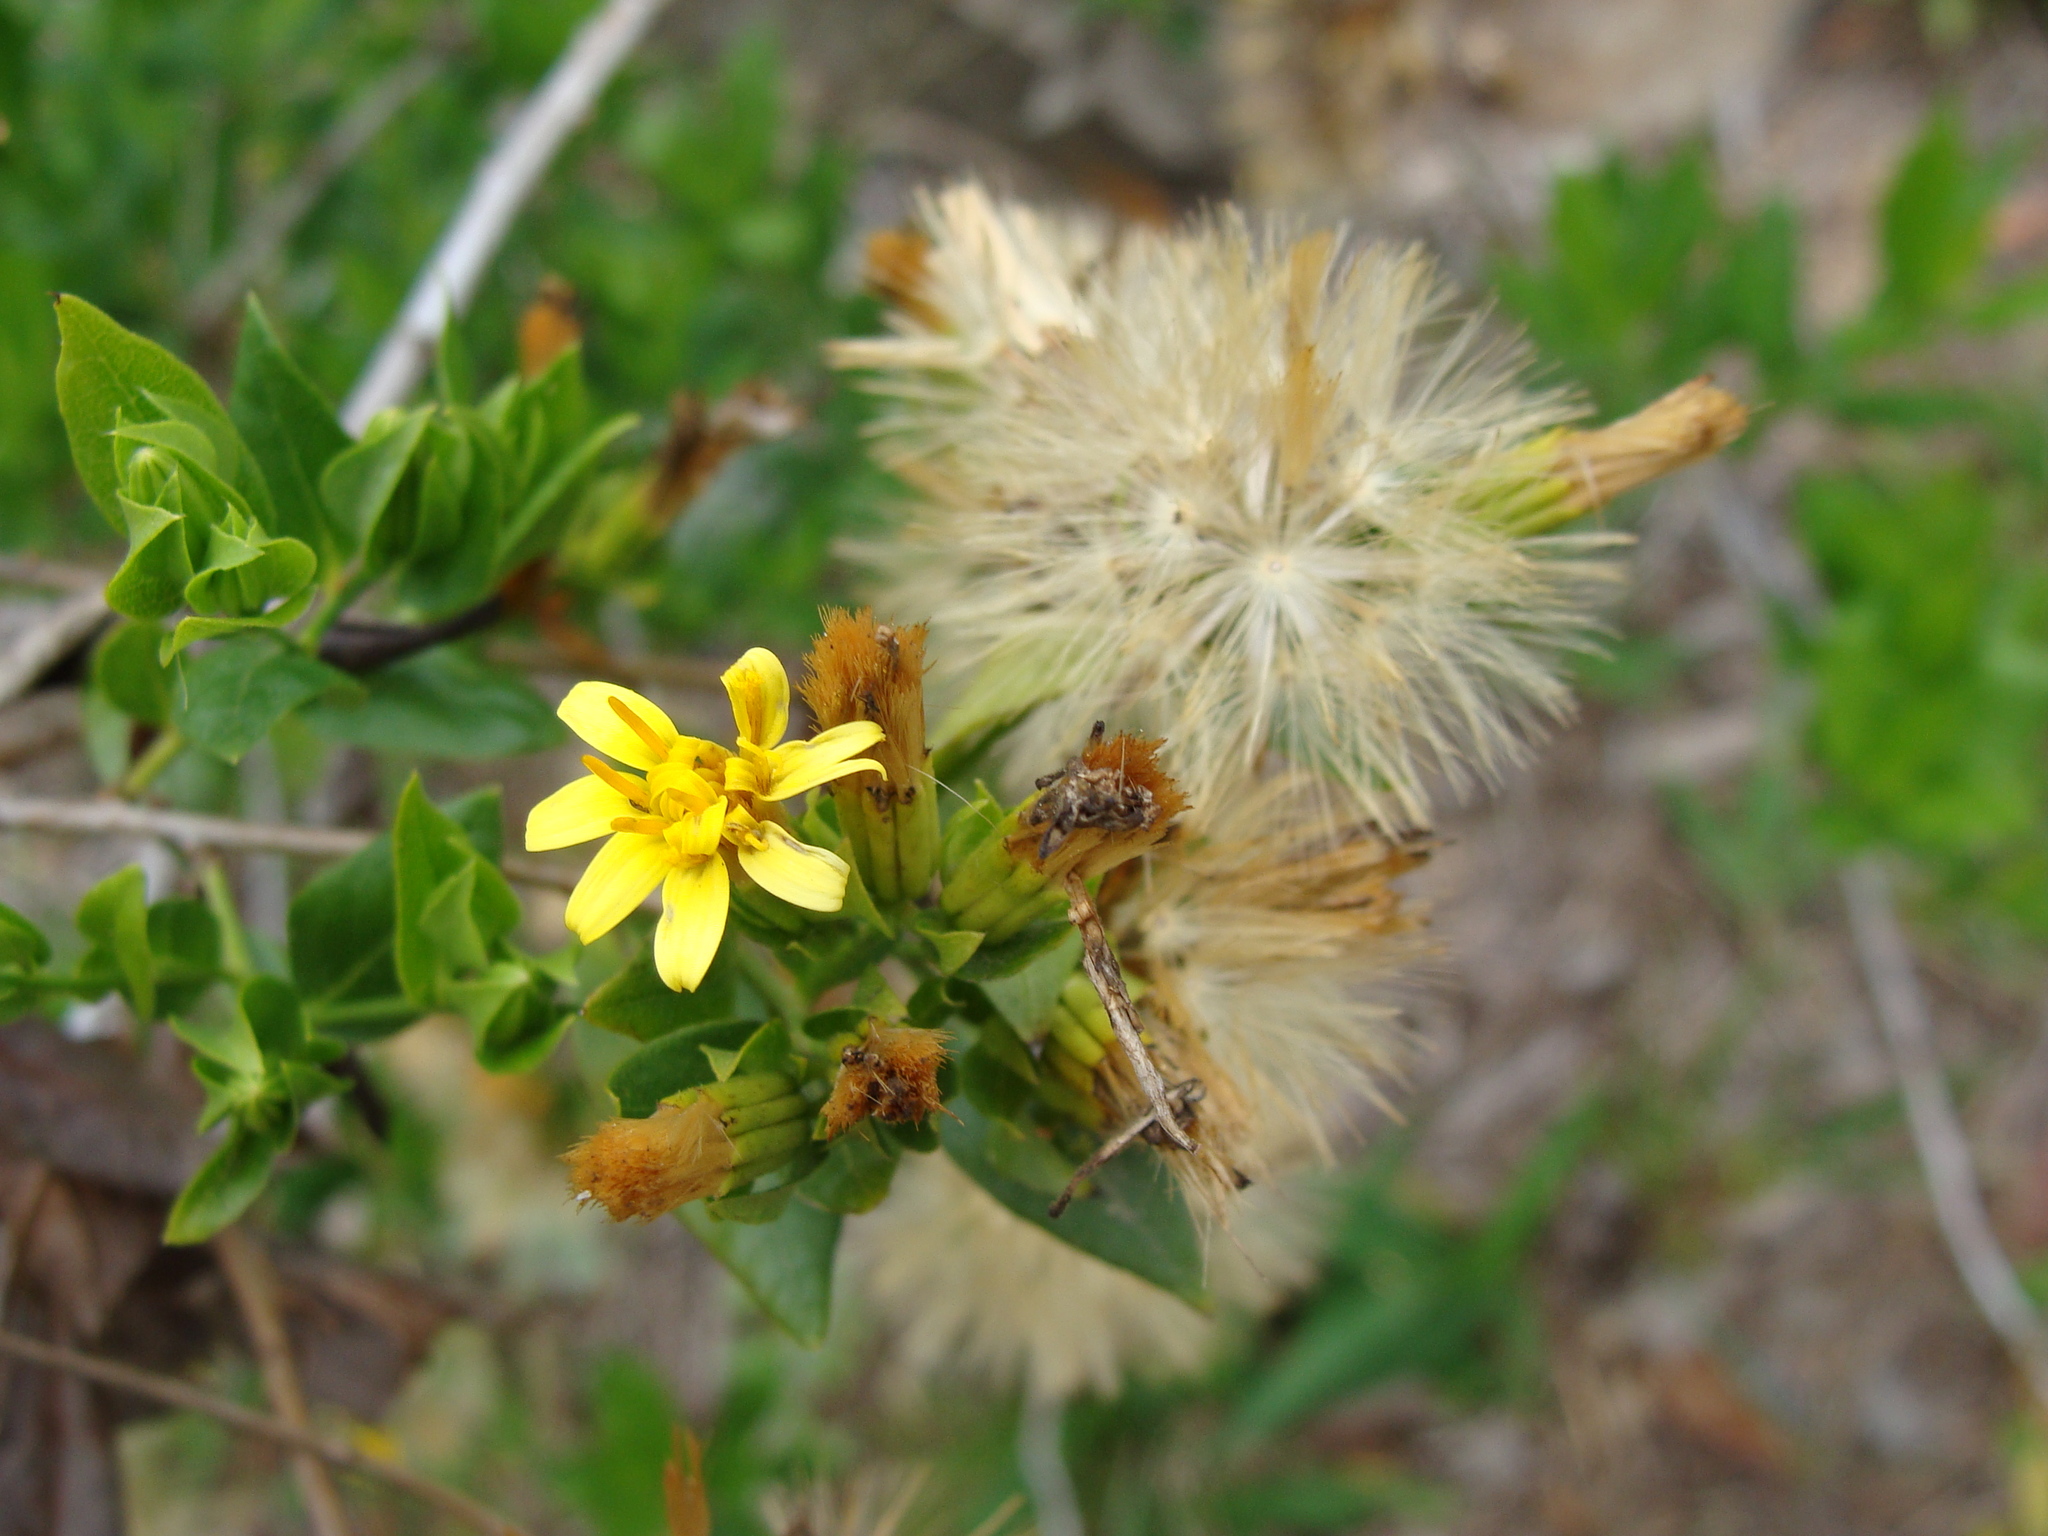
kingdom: Plantae
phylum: Tracheophyta
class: Magnoliopsida
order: Asterales
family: Asteraceae
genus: Trixis
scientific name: Trixis inula
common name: Tropical threefold
